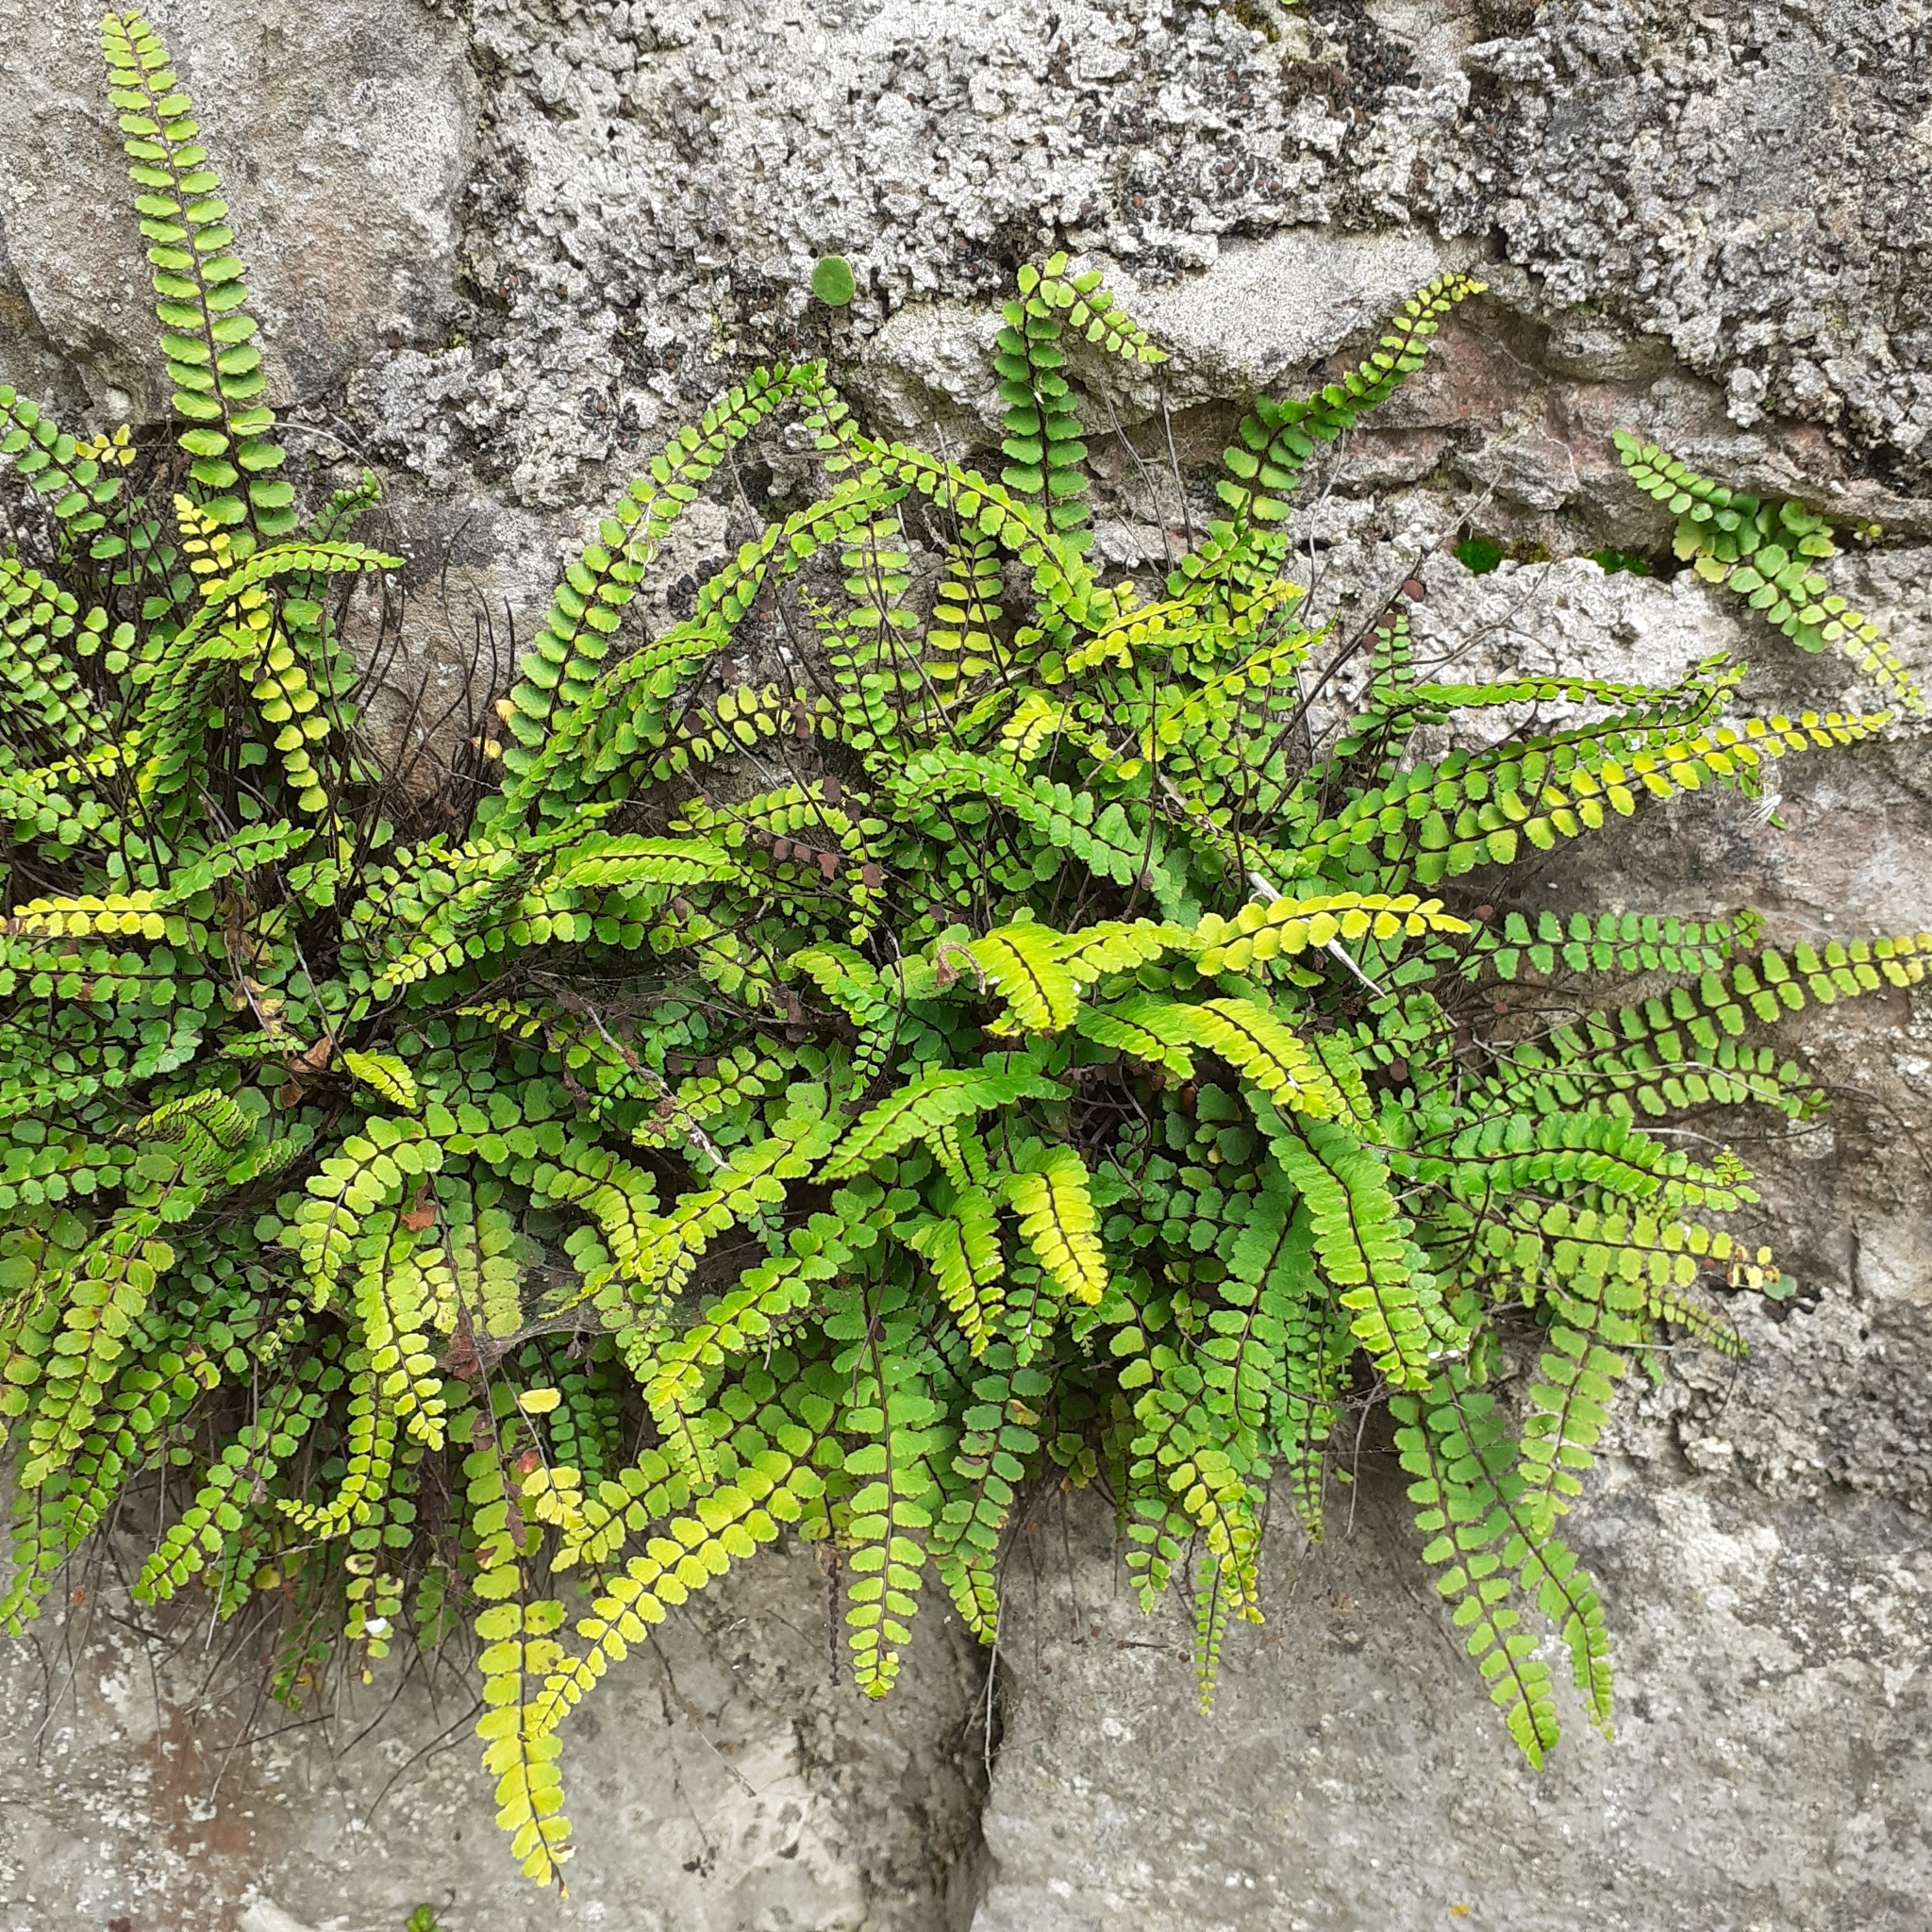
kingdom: Plantae
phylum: Tracheophyta
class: Polypodiopsida
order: Polypodiales
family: Aspleniaceae
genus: Asplenium
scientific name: Asplenium trichomanes
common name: Maidenhair spleenwort
